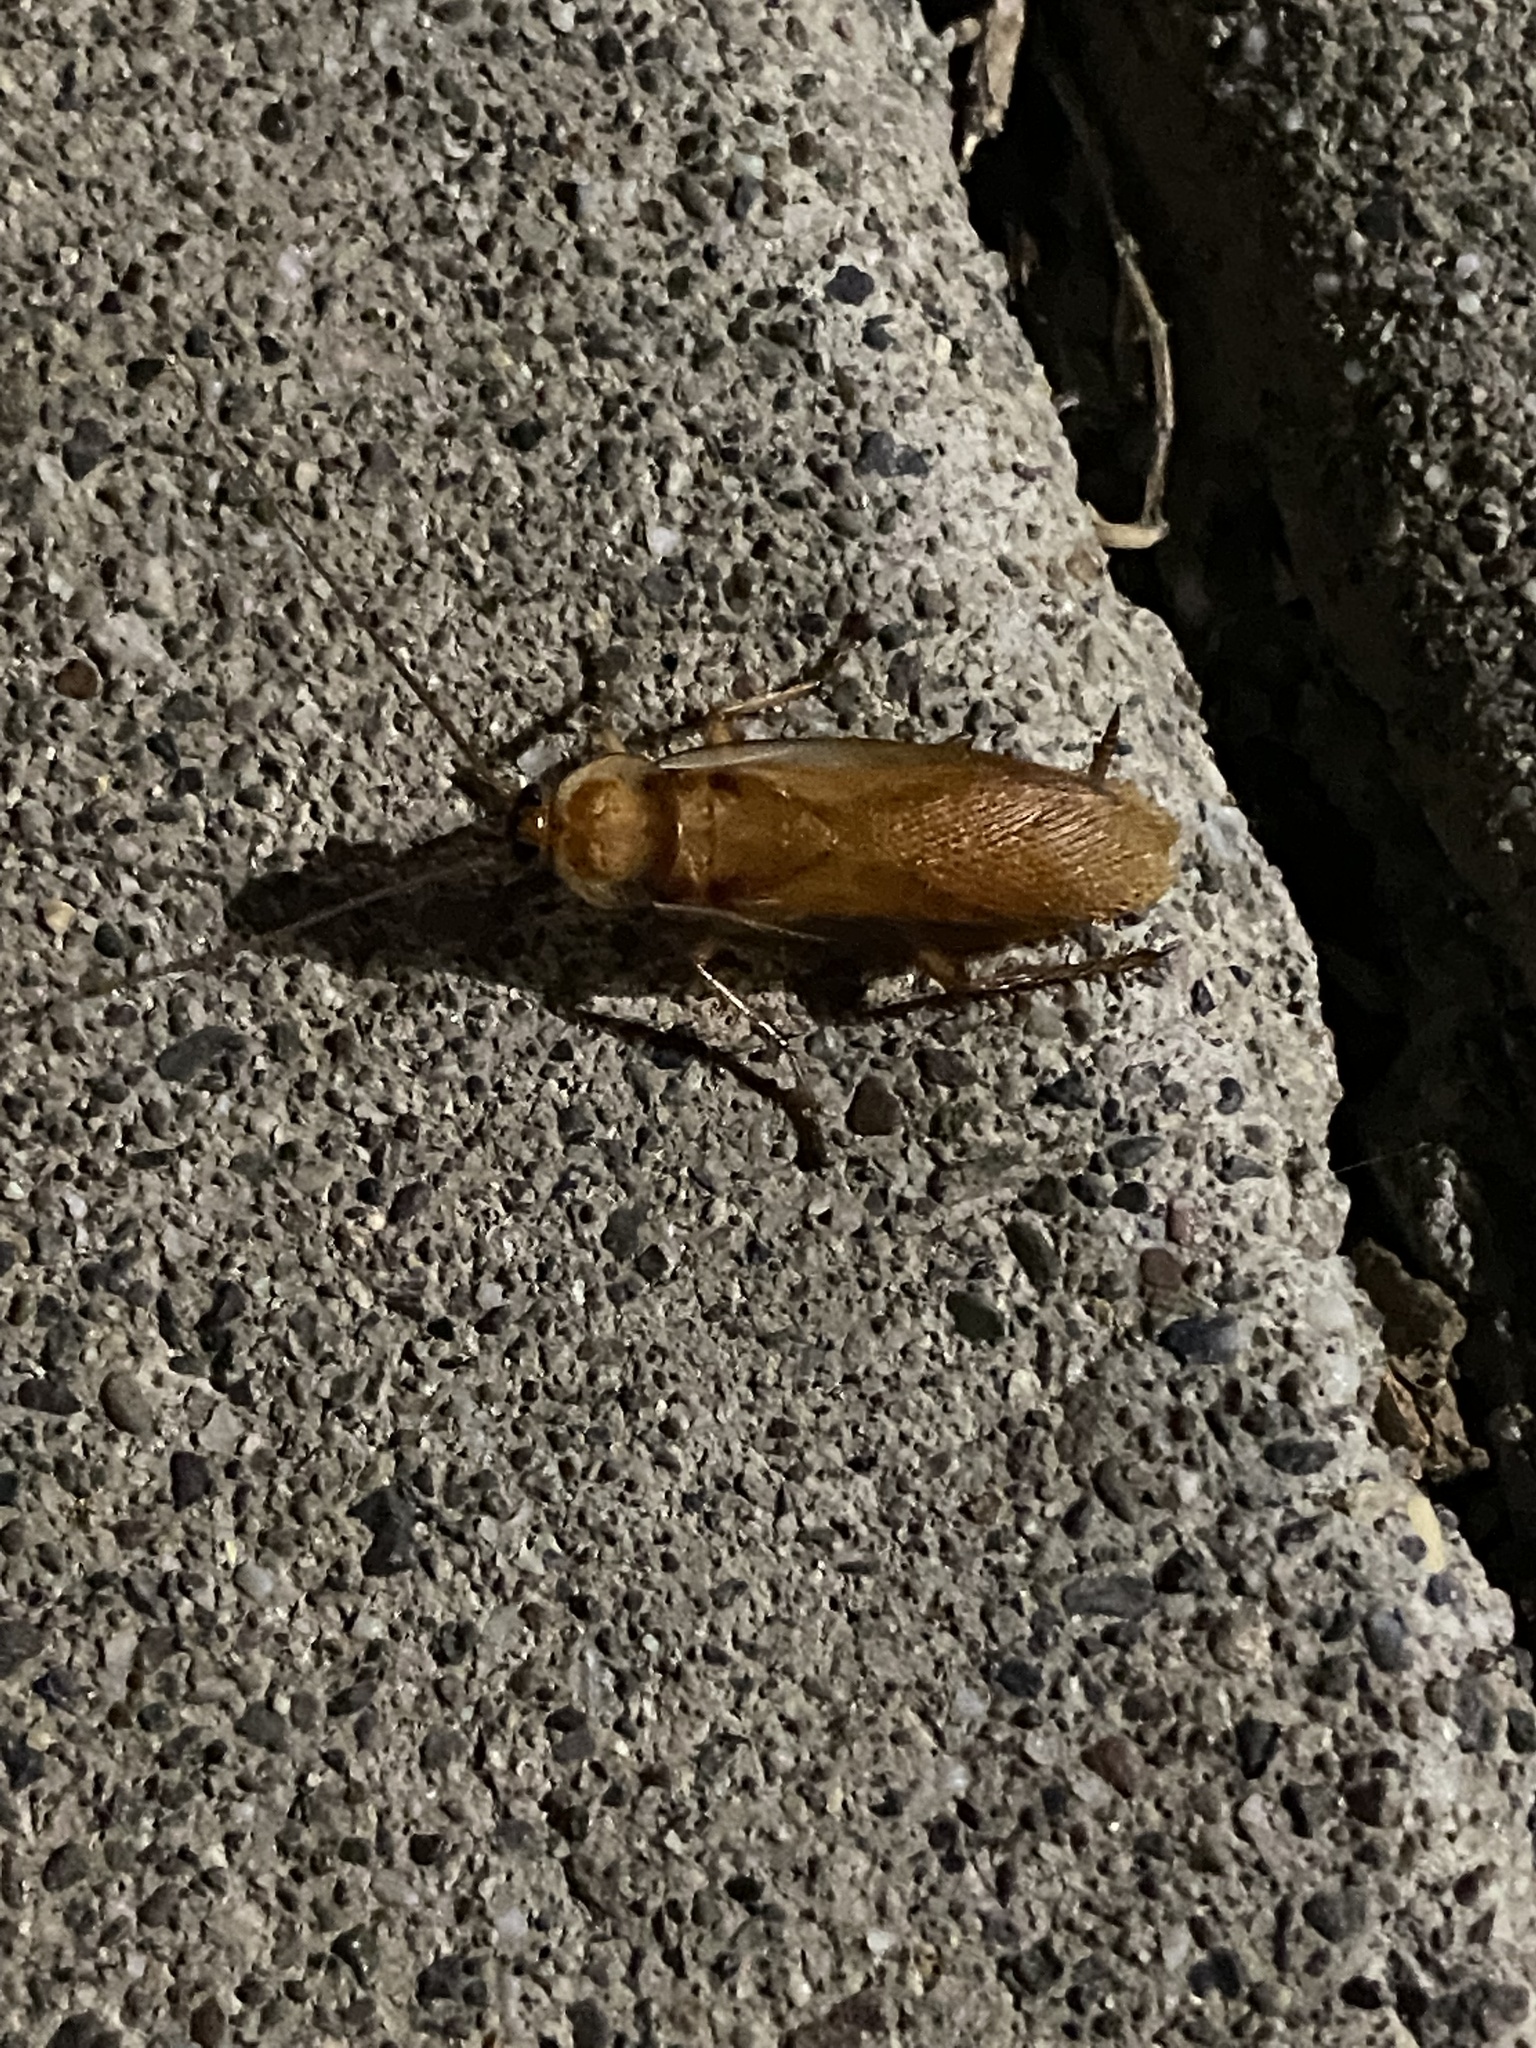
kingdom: Animalia
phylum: Arthropoda
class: Insecta
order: Blattodea
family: Blattidae
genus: Periplaneta
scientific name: Periplaneta lateralis
